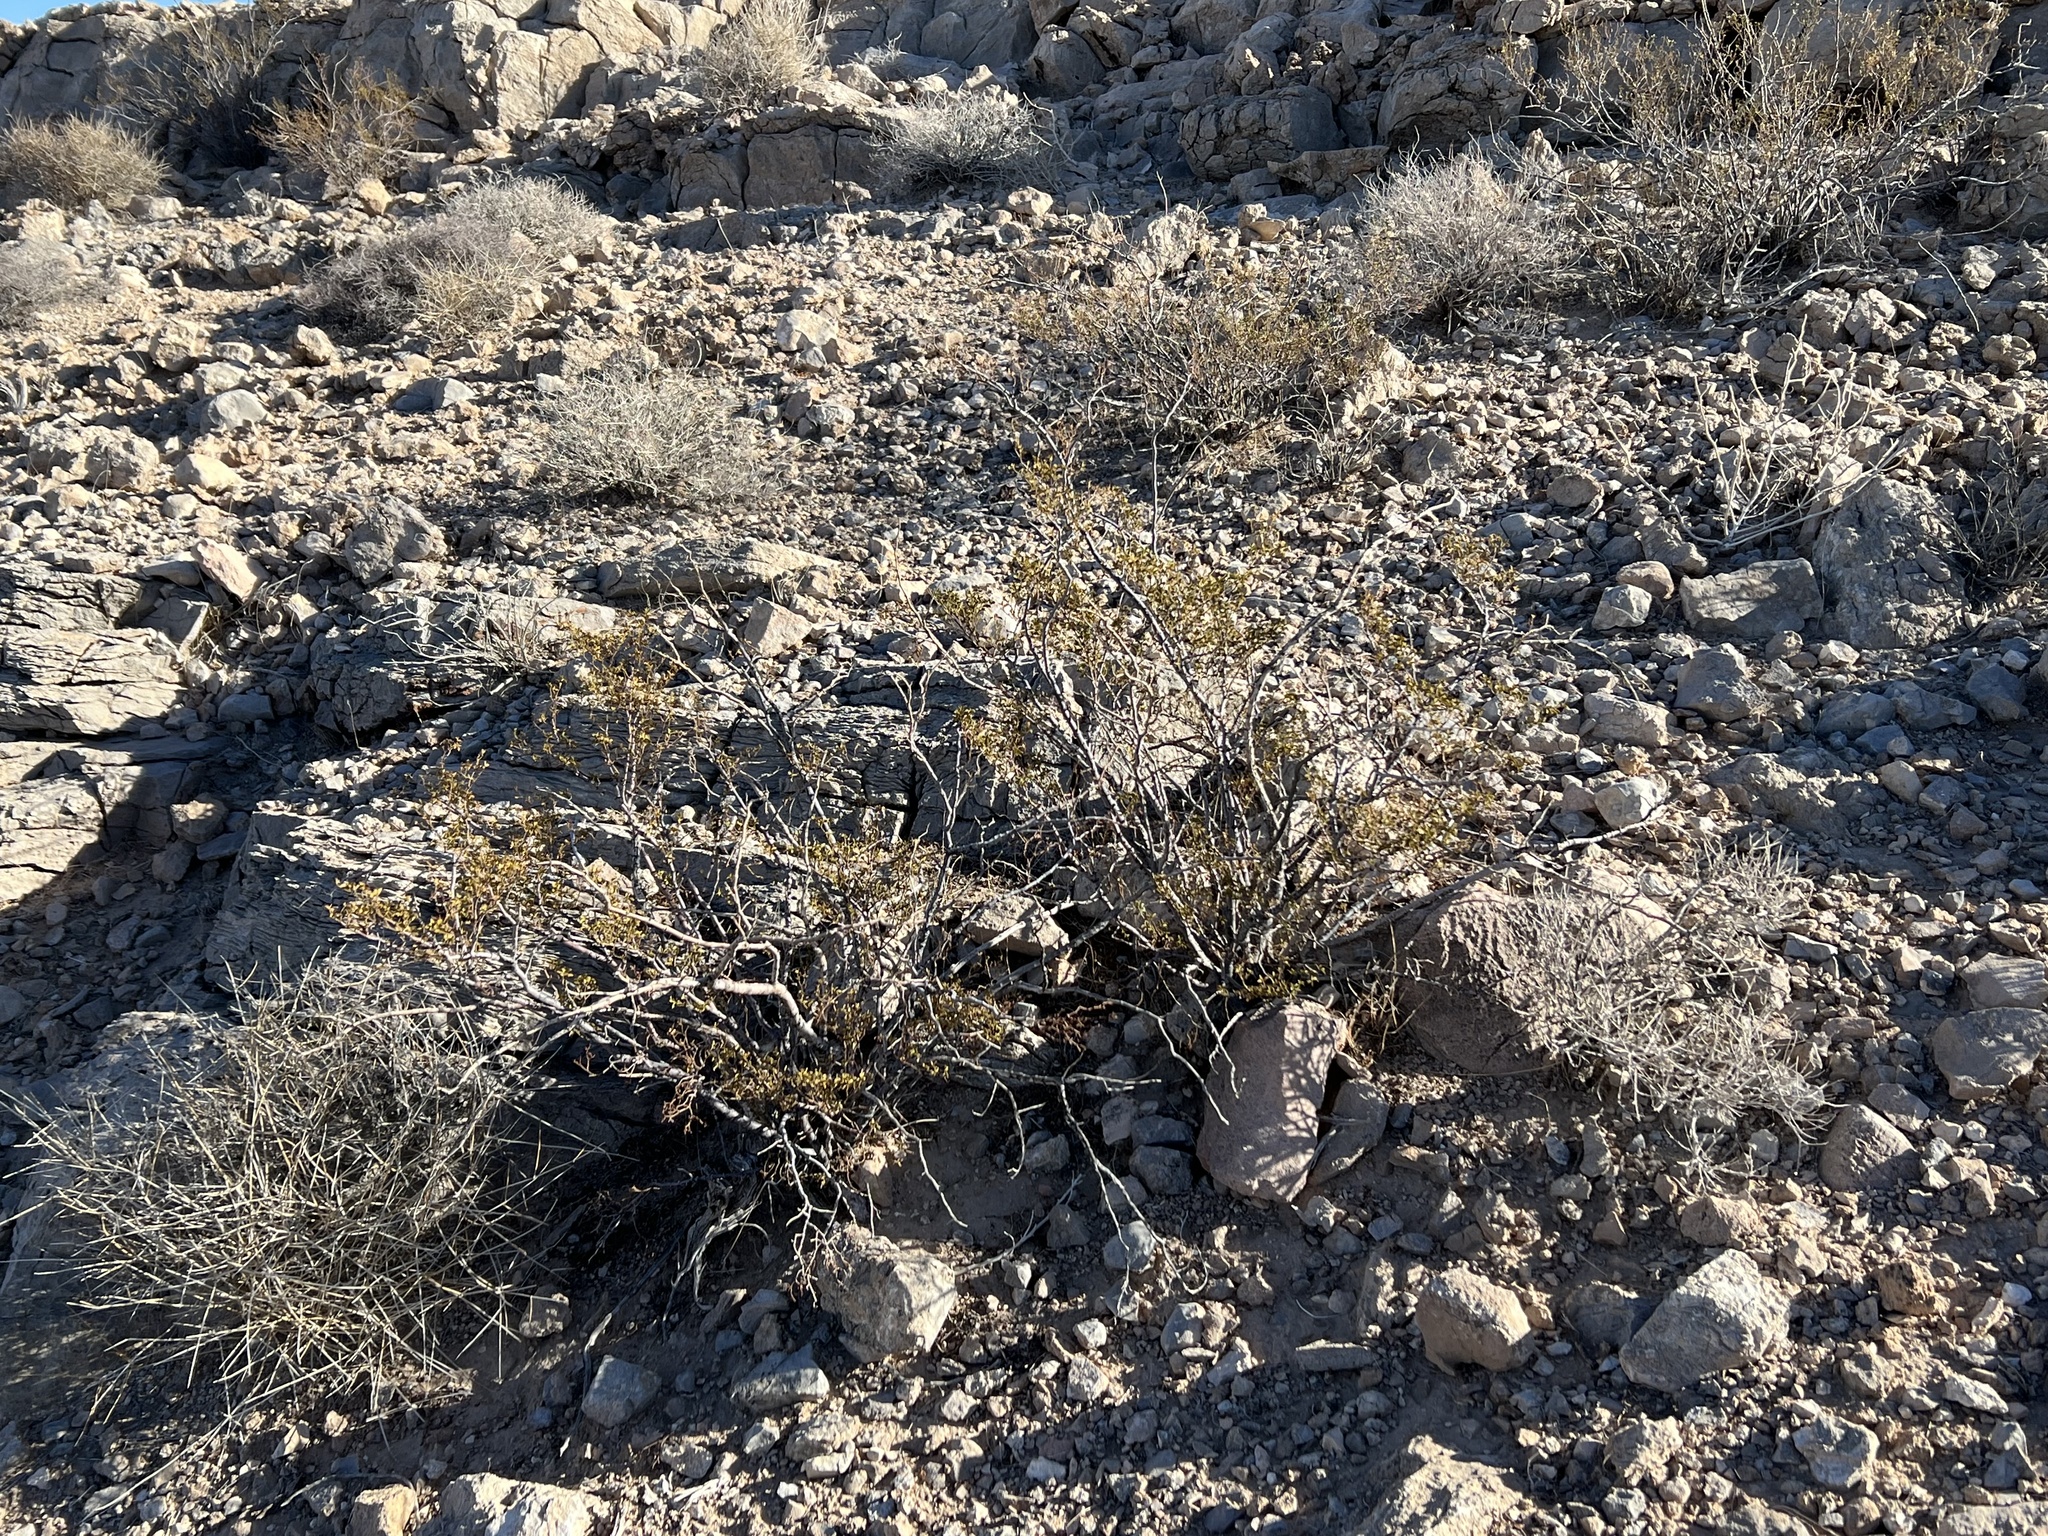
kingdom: Plantae
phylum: Tracheophyta
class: Magnoliopsida
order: Zygophyllales
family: Zygophyllaceae
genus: Larrea
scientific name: Larrea tridentata
